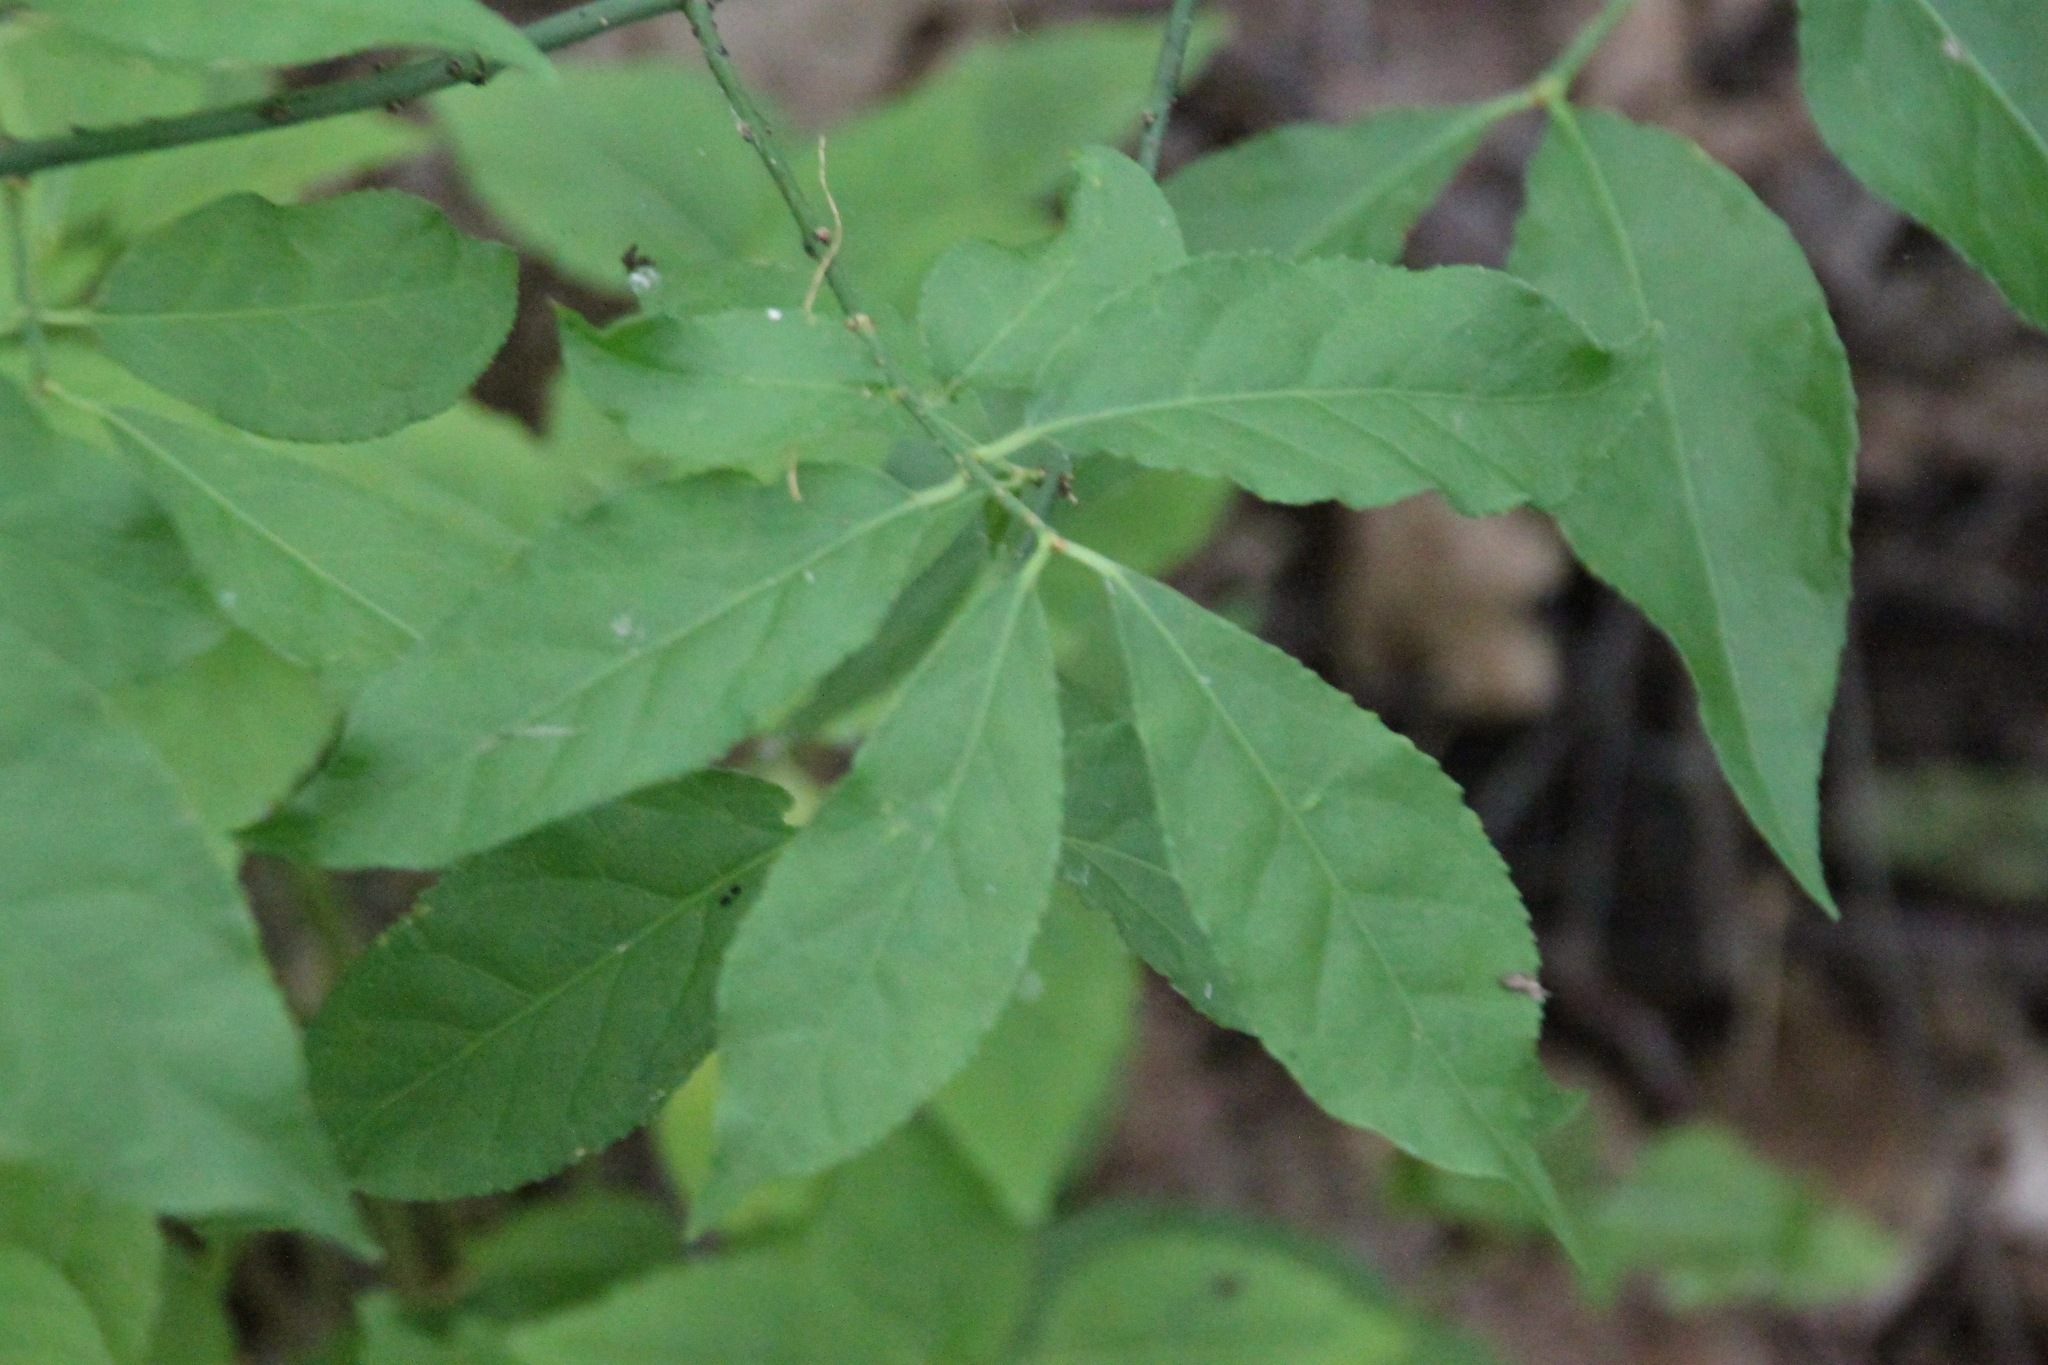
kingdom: Plantae
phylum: Tracheophyta
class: Magnoliopsida
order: Celastrales
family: Celastraceae
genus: Euonymus
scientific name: Euonymus verrucosus
